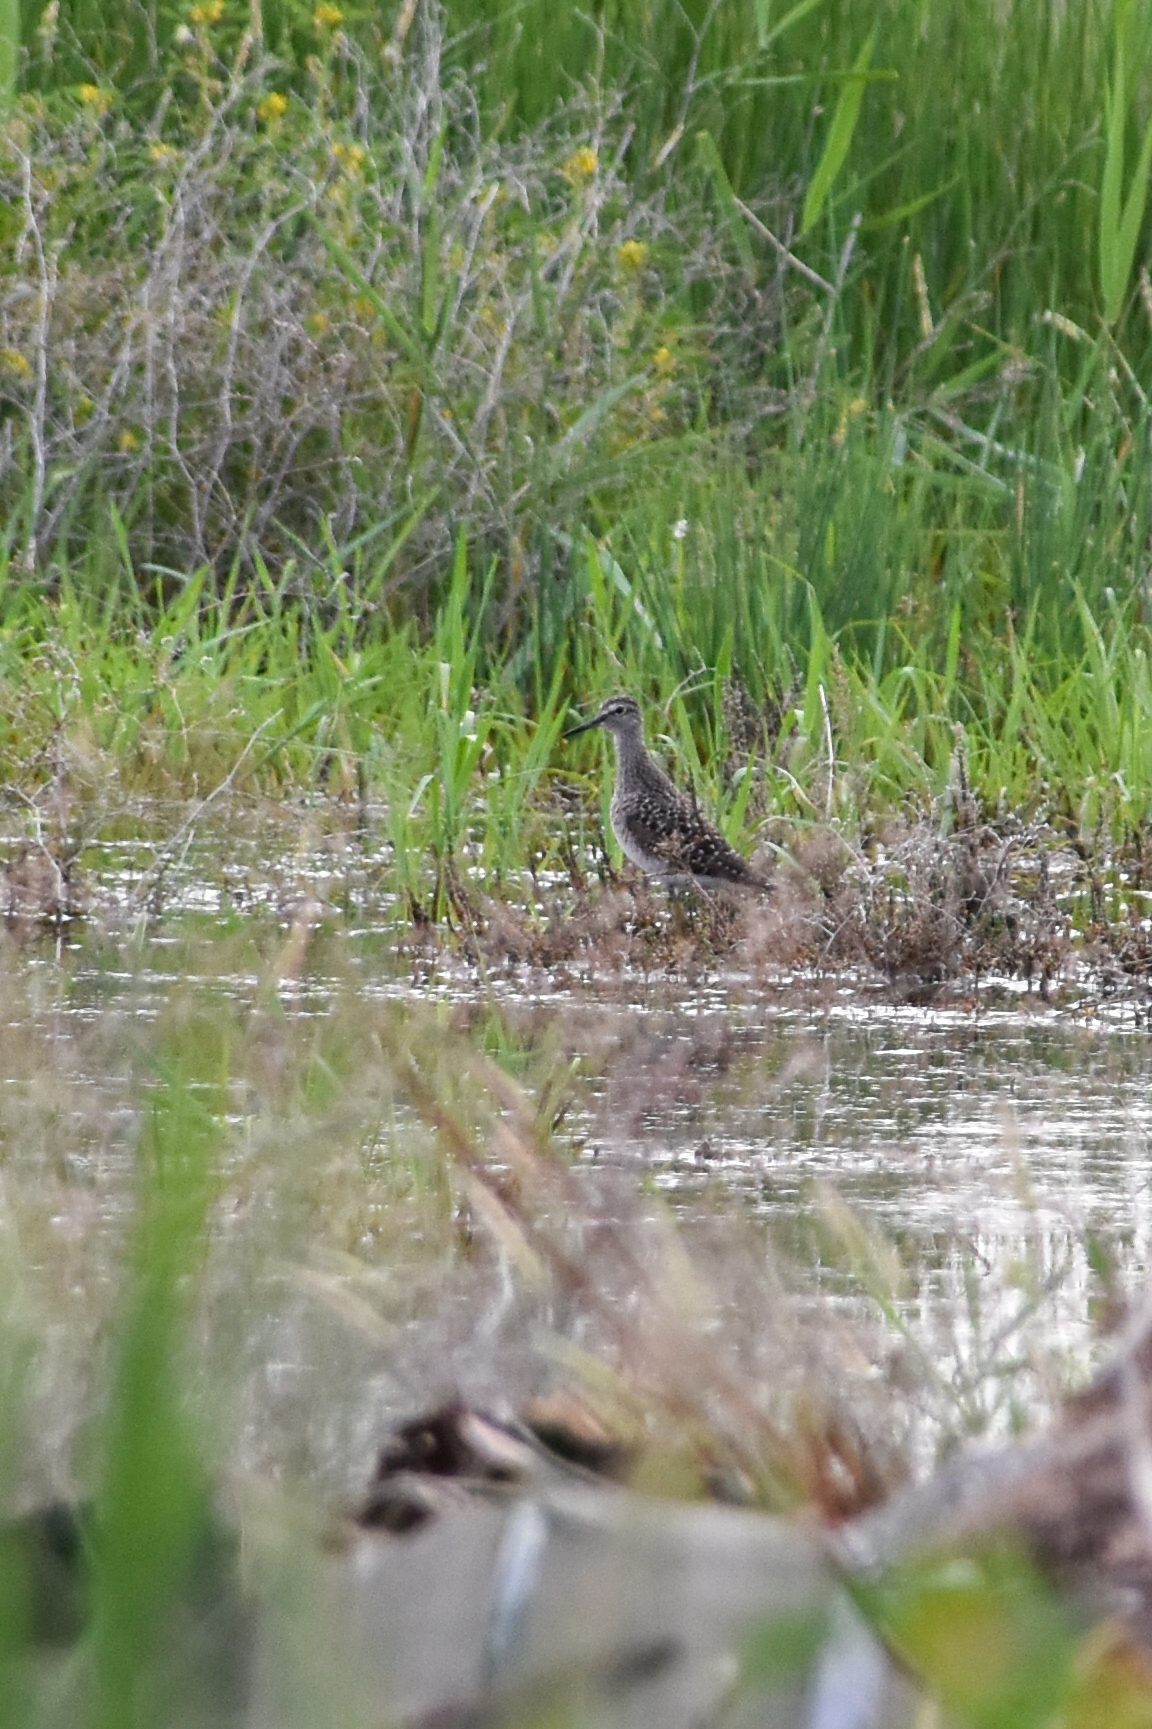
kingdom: Animalia
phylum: Chordata
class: Aves
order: Charadriiformes
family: Scolopacidae
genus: Tringa
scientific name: Tringa glareola
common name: Wood sandpiper
